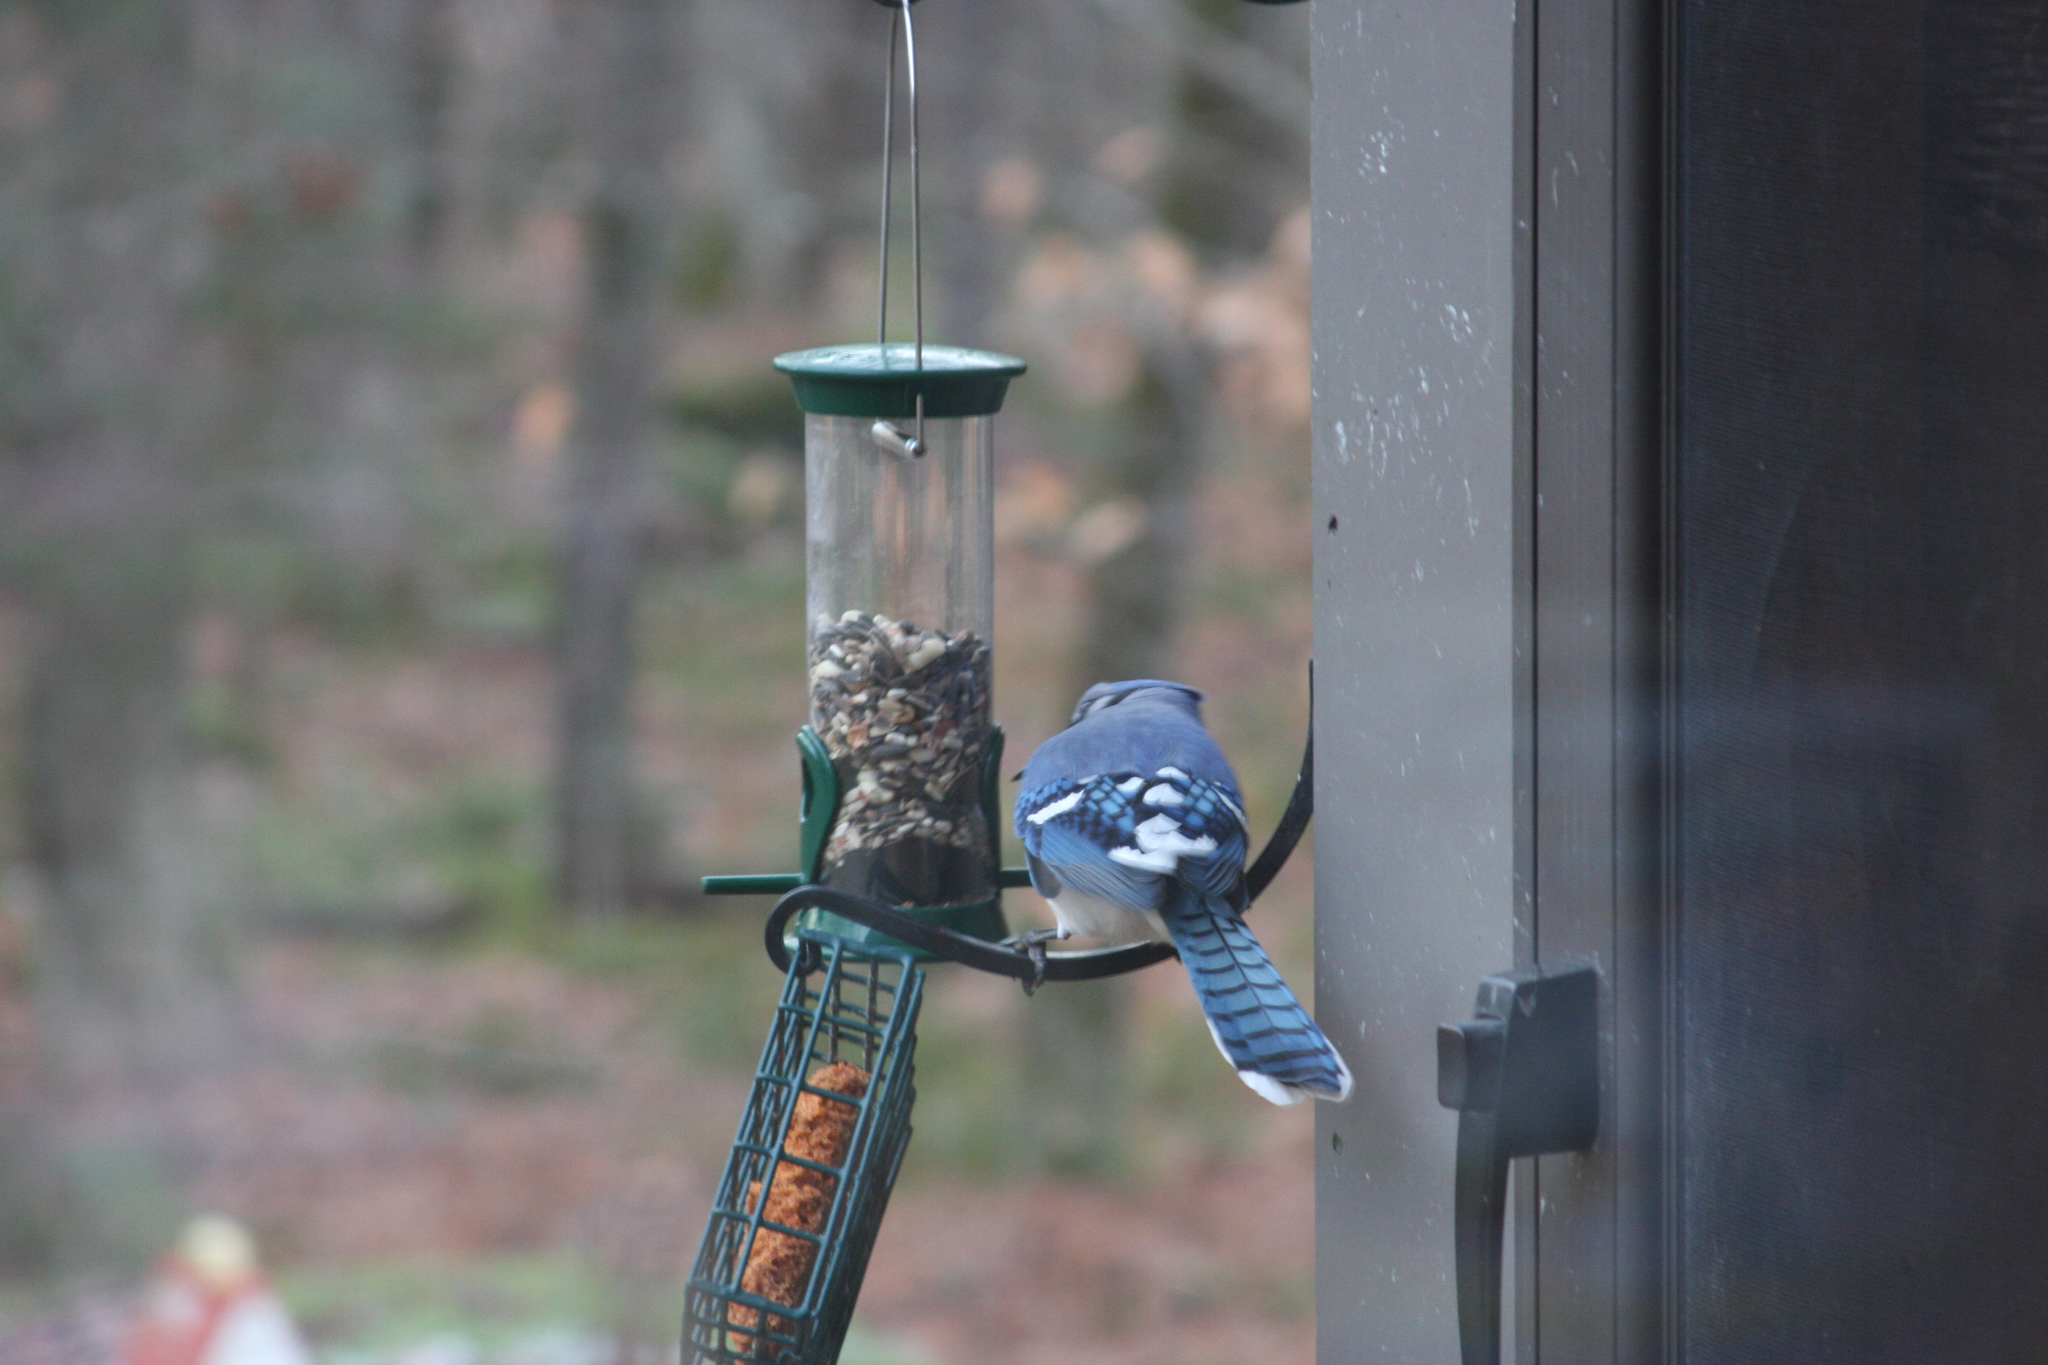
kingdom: Animalia
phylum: Chordata
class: Aves
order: Passeriformes
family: Corvidae
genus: Cyanocitta
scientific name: Cyanocitta cristata
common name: Blue jay
